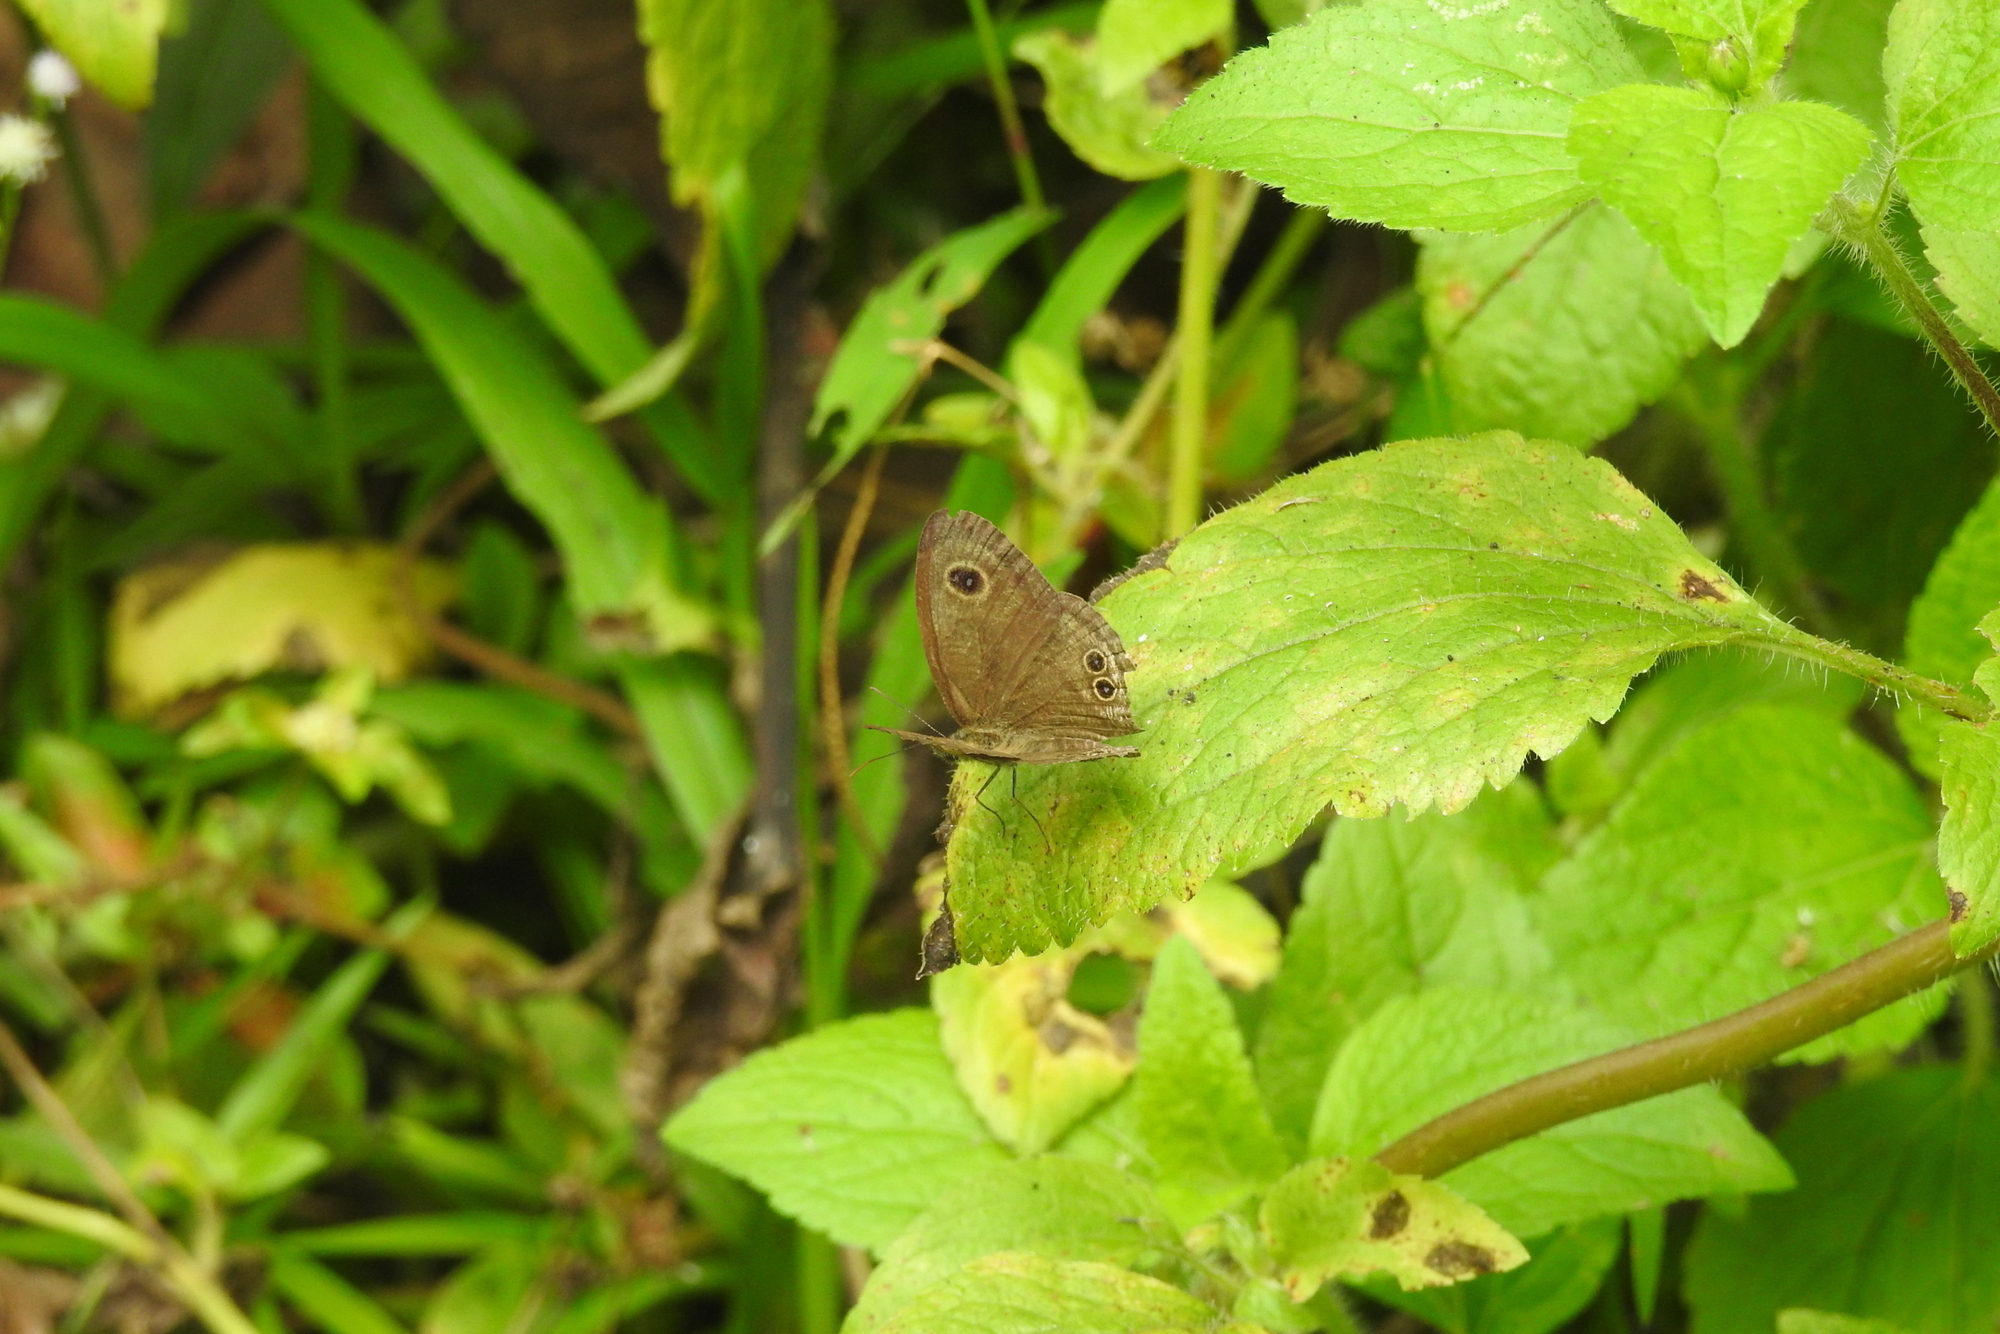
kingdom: Animalia
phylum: Arthropoda
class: Insecta
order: Lepidoptera
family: Nymphalidae
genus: Ypthima
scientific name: Ypthima baldus
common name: Common five-ring
